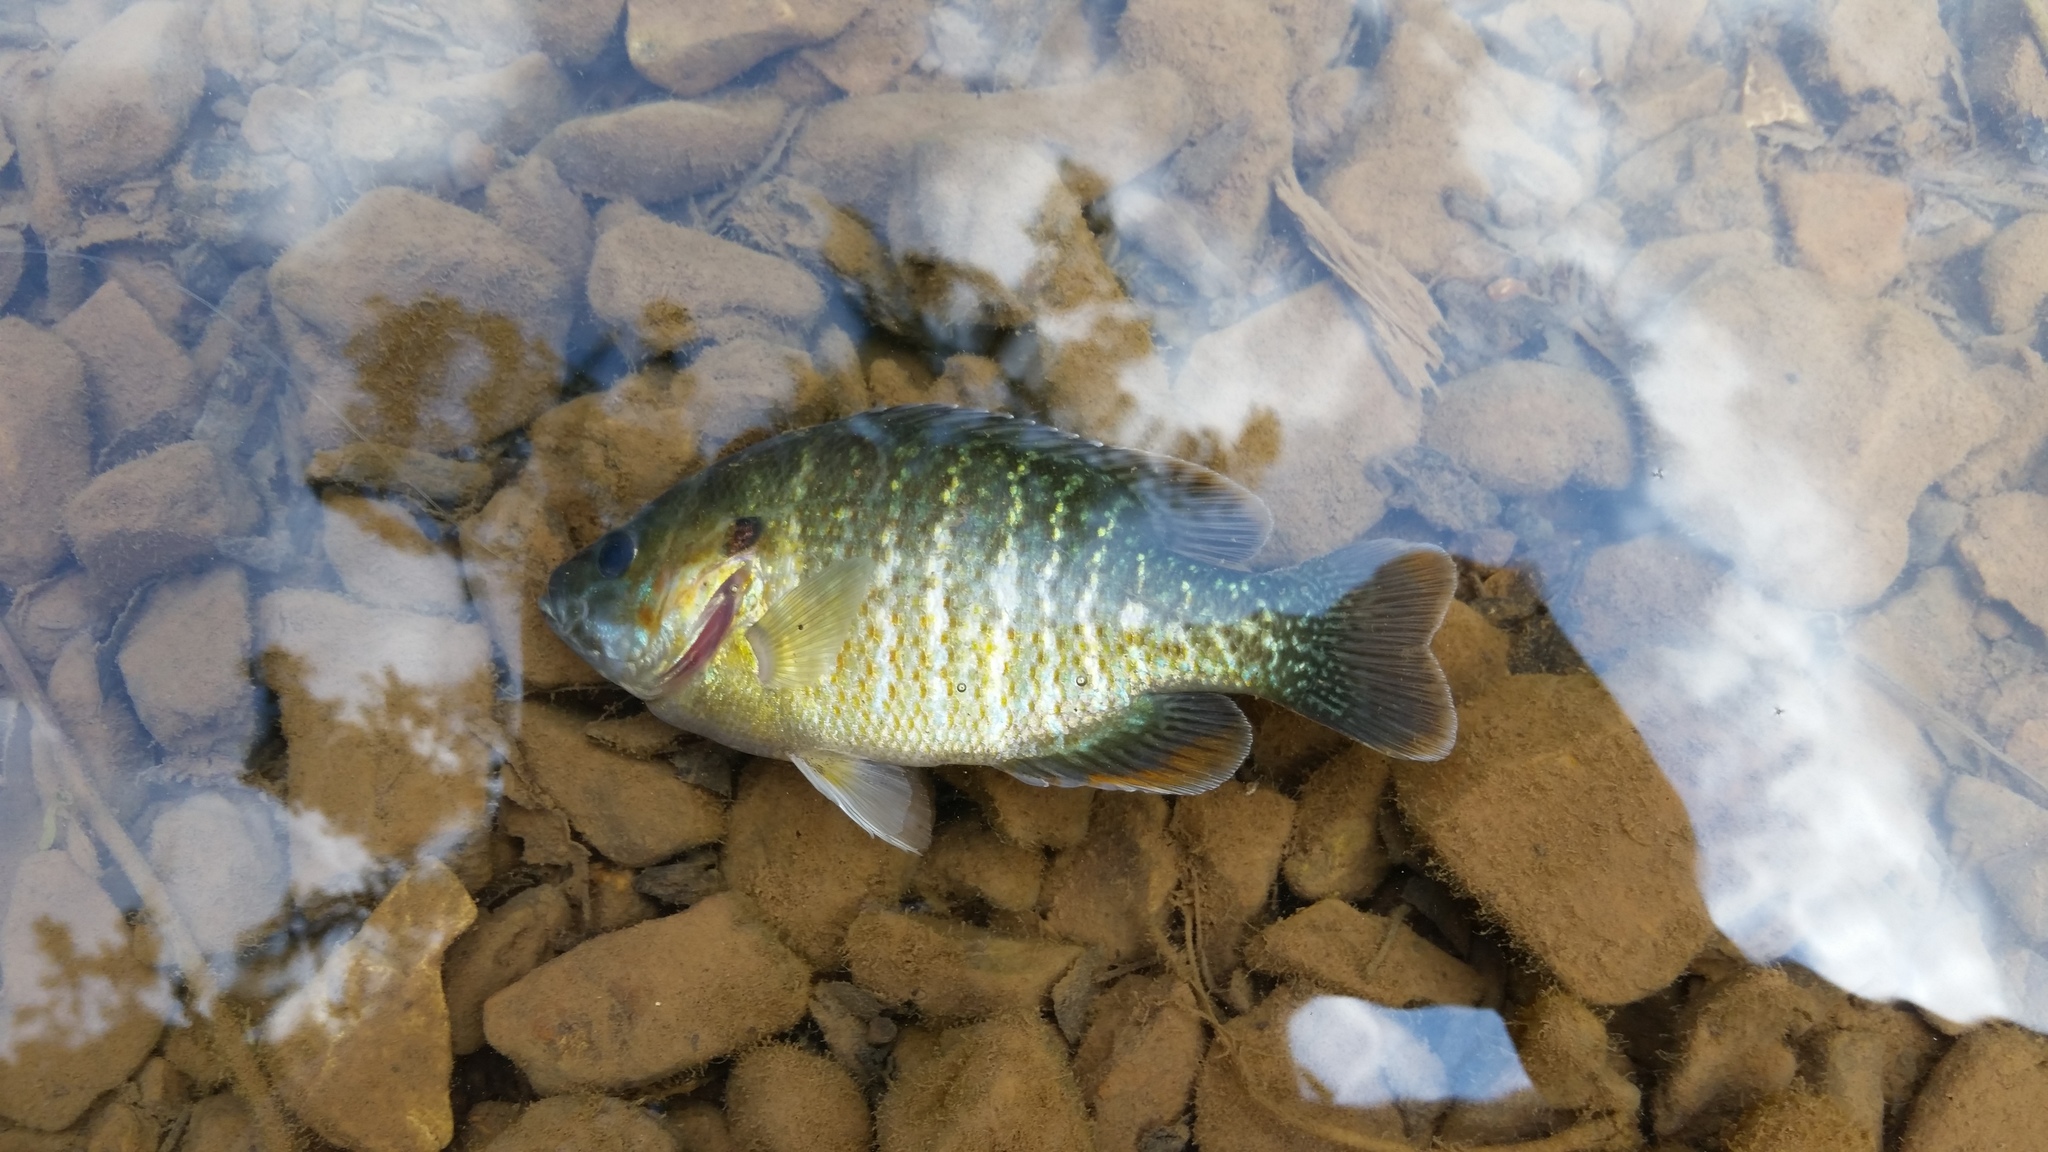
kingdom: Animalia
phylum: Chordata
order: Perciformes
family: Centrarchidae
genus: Lepomis
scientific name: Lepomis
